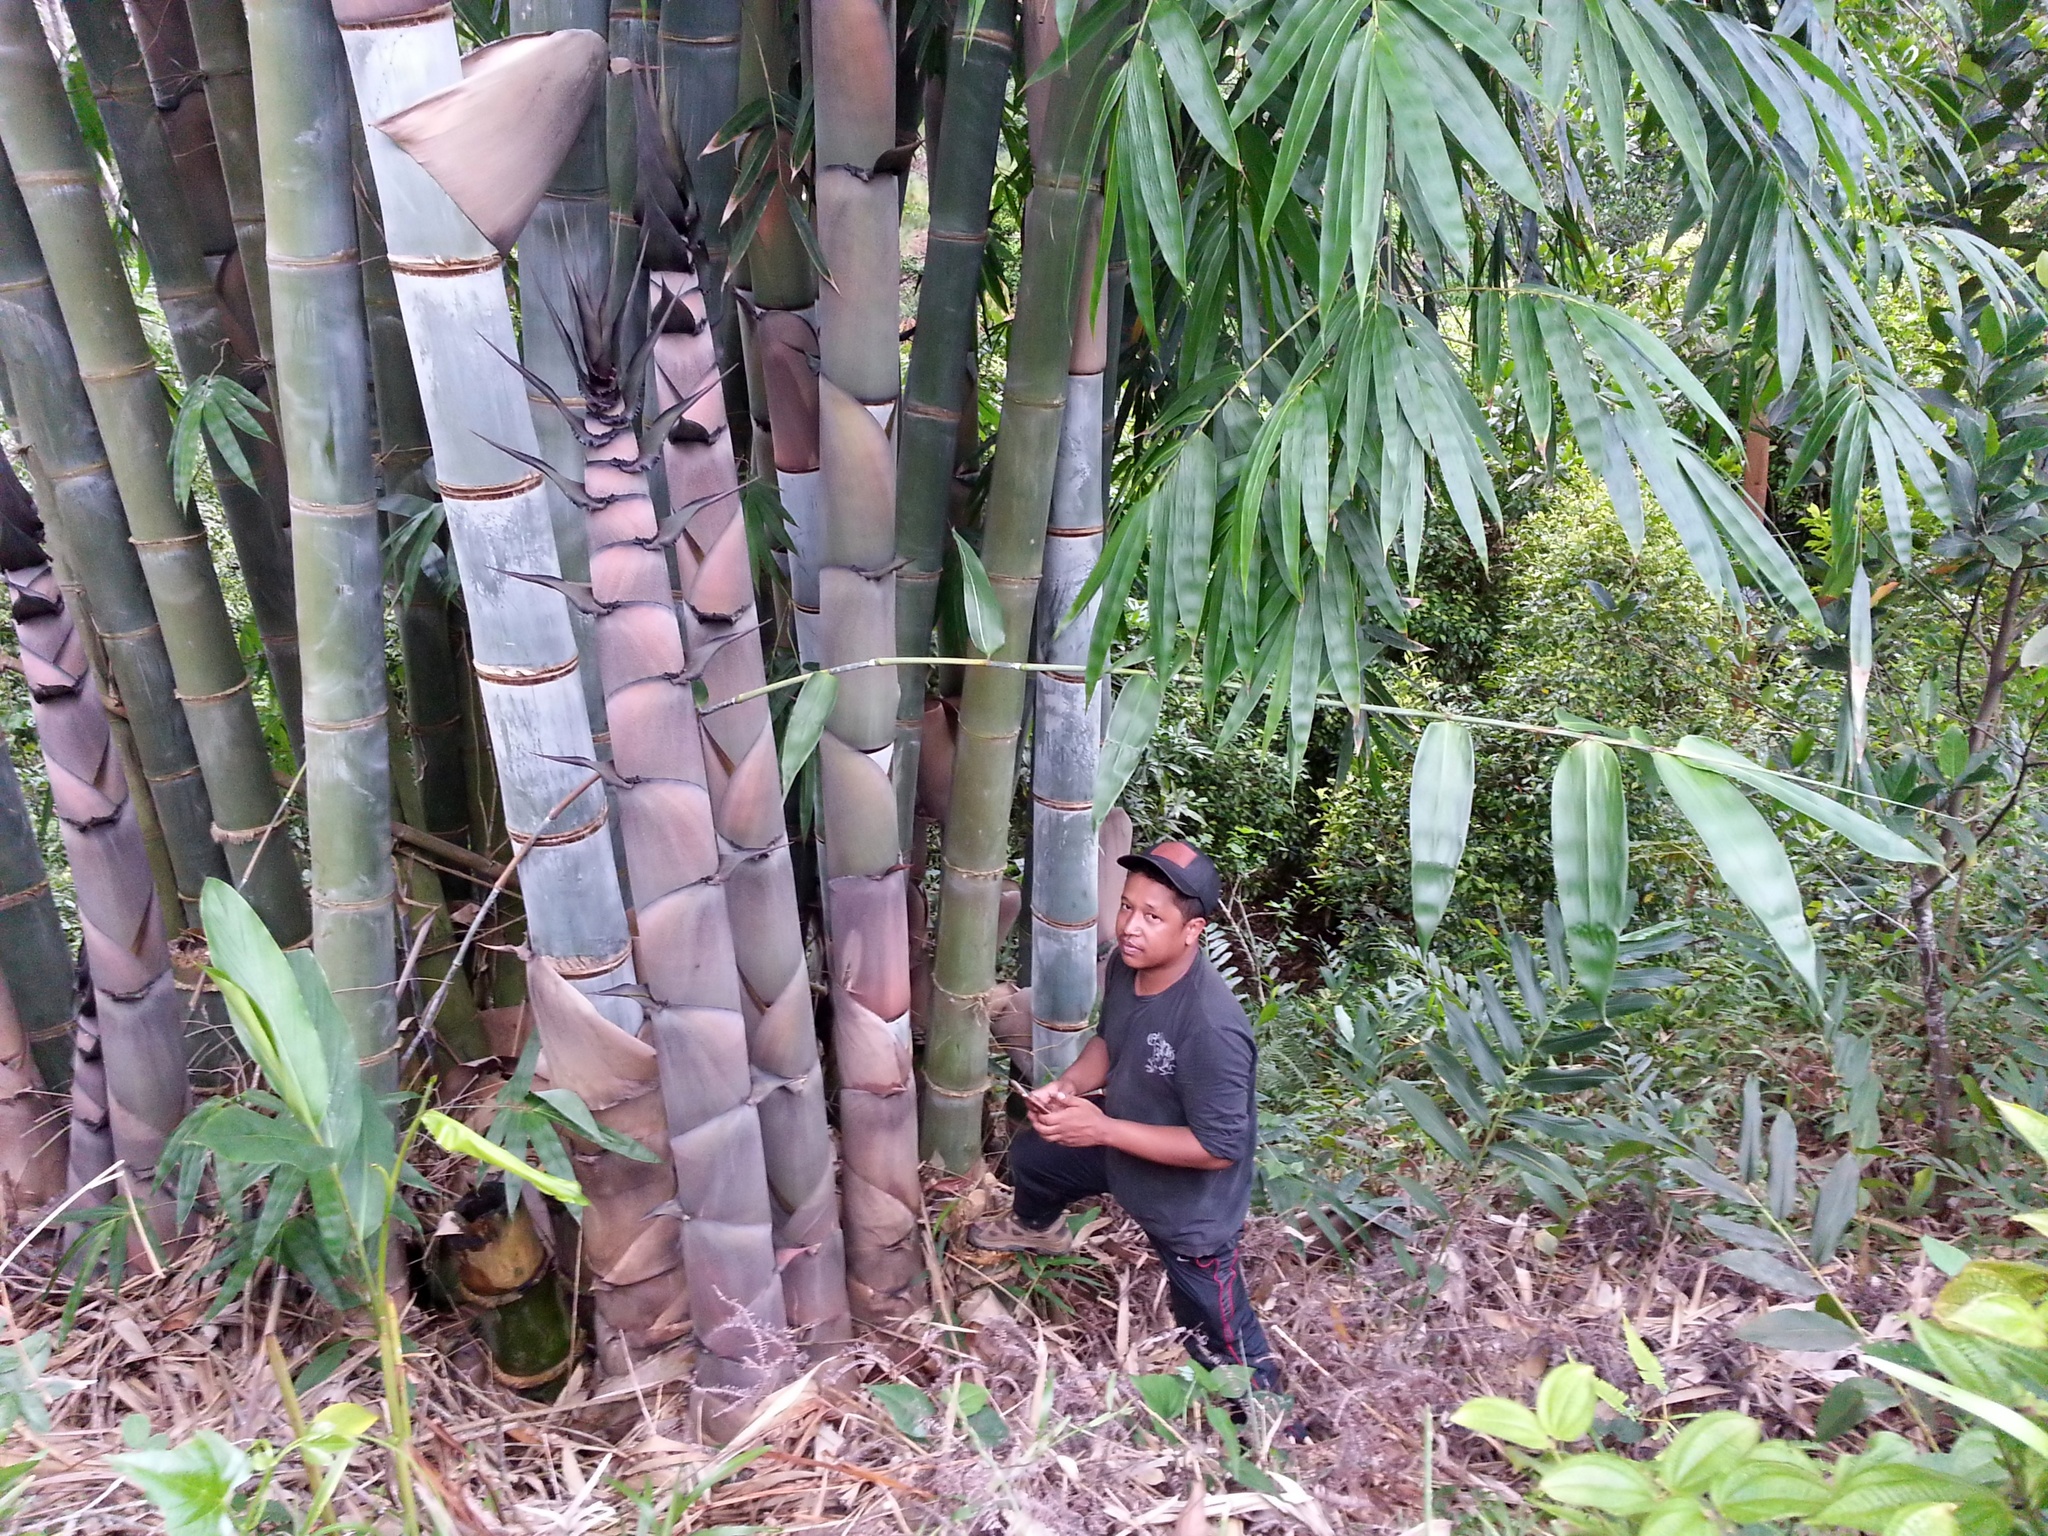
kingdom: Plantae
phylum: Tracheophyta
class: Liliopsida
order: Poales
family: Poaceae
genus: Dendrocalamus
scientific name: Dendrocalamus giganteus
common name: Giant bamboo
